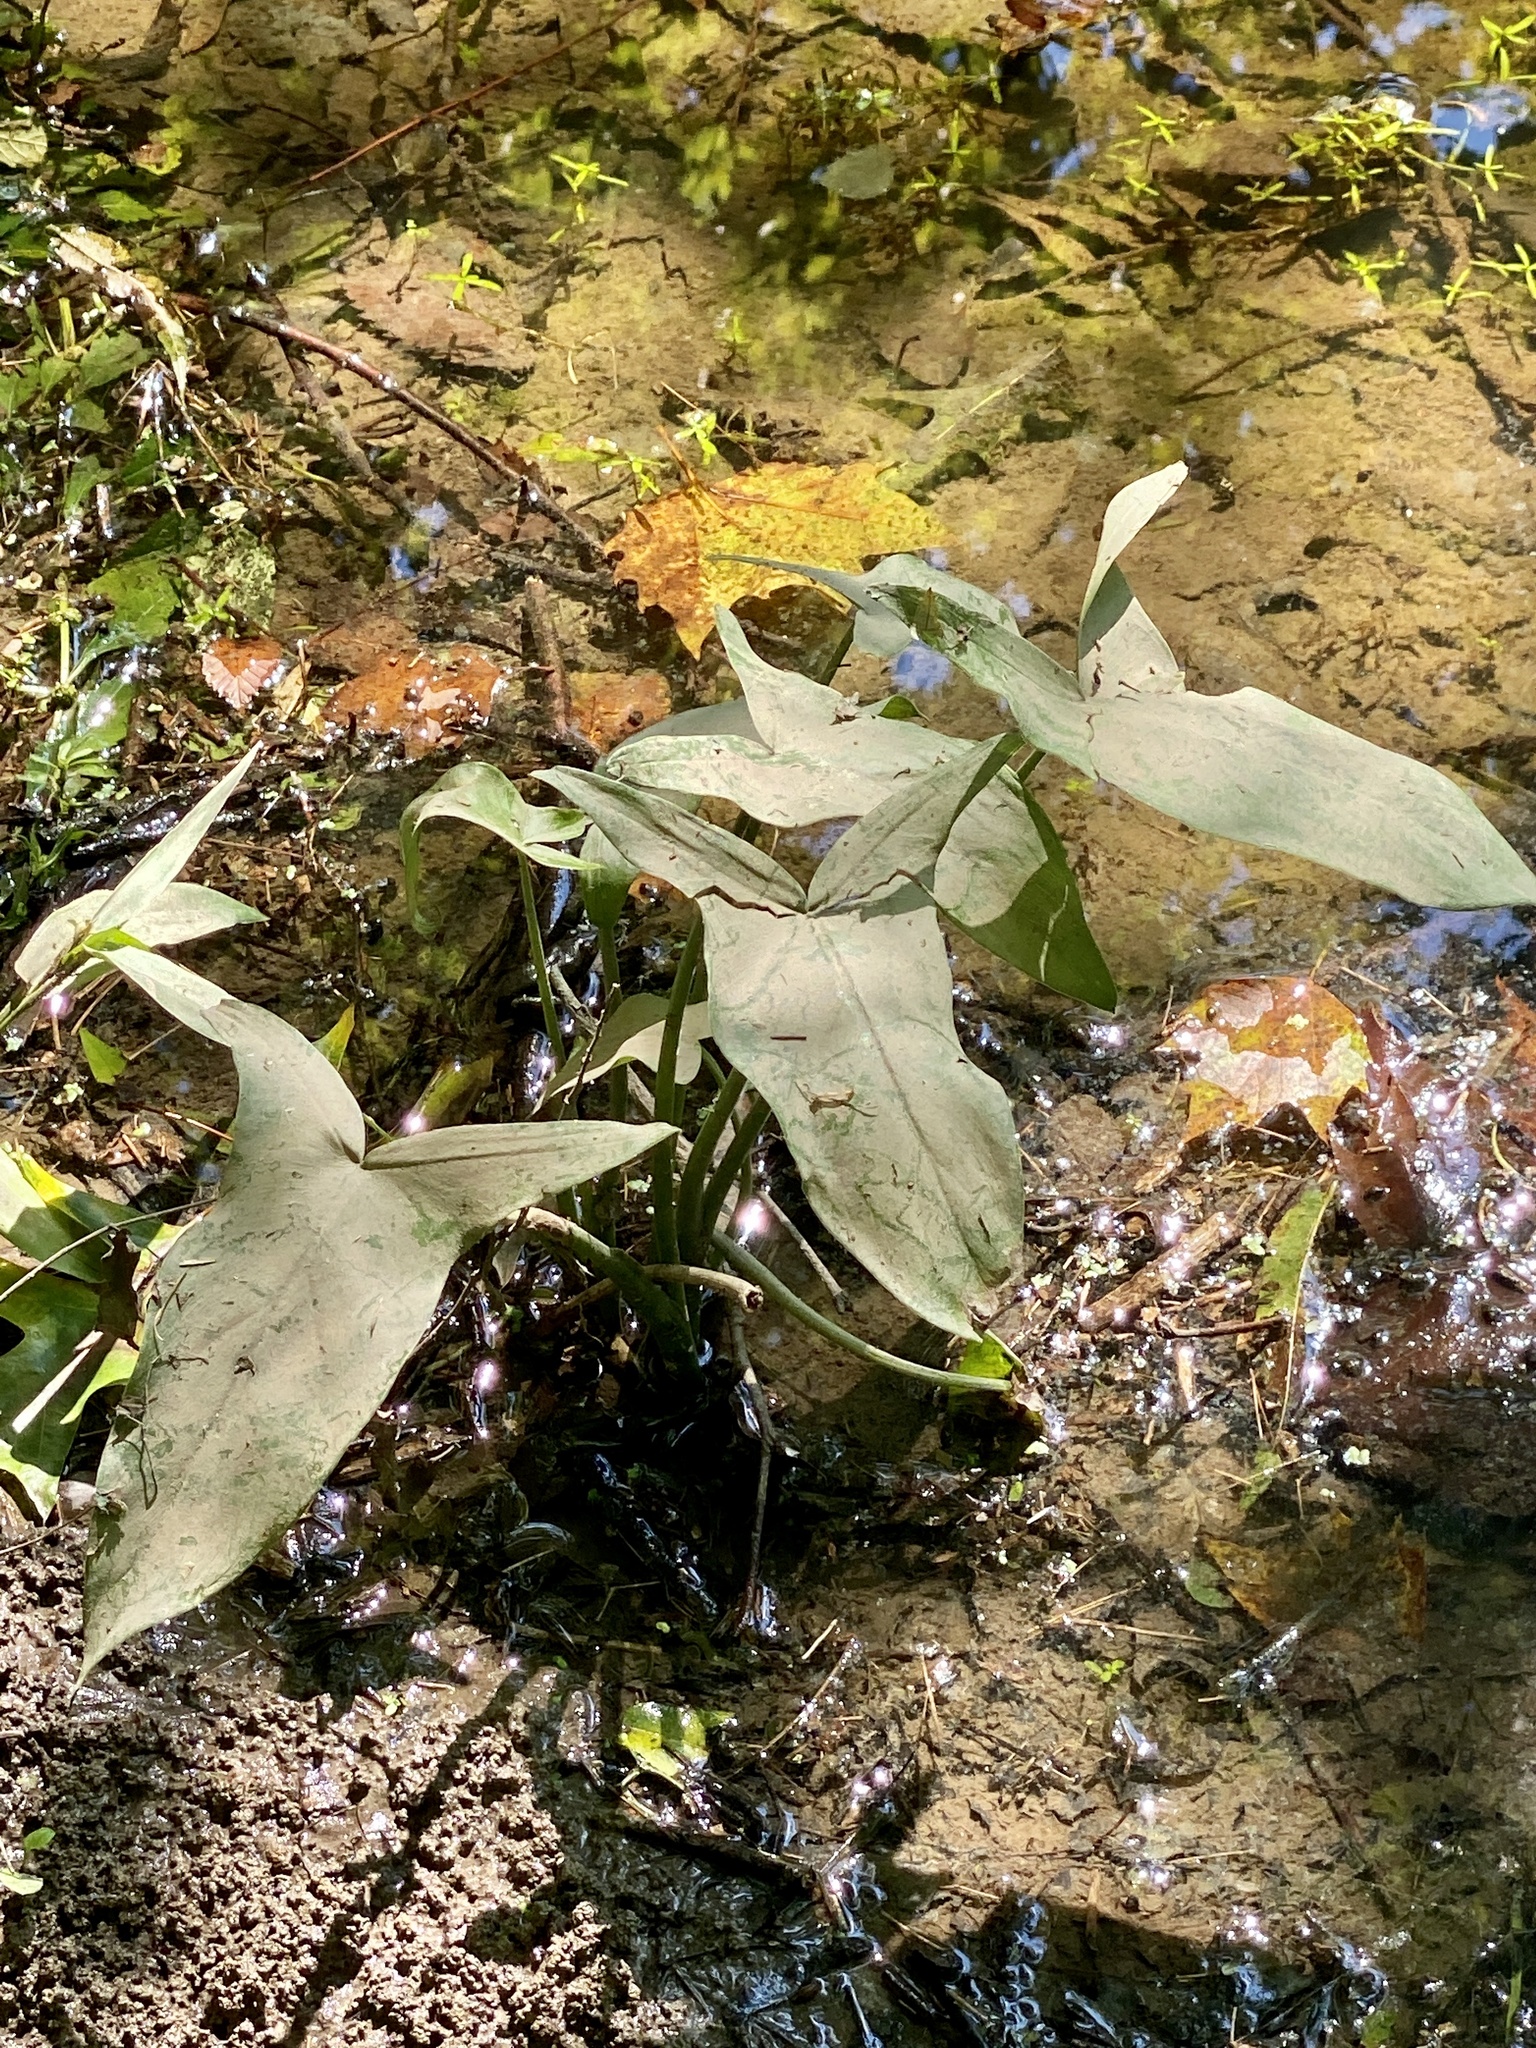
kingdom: Plantae
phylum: Tracheophyta
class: Liliopsida
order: Alismatales
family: Araceae
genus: Peltandra
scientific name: Peltandra virginica
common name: Arrow arum
